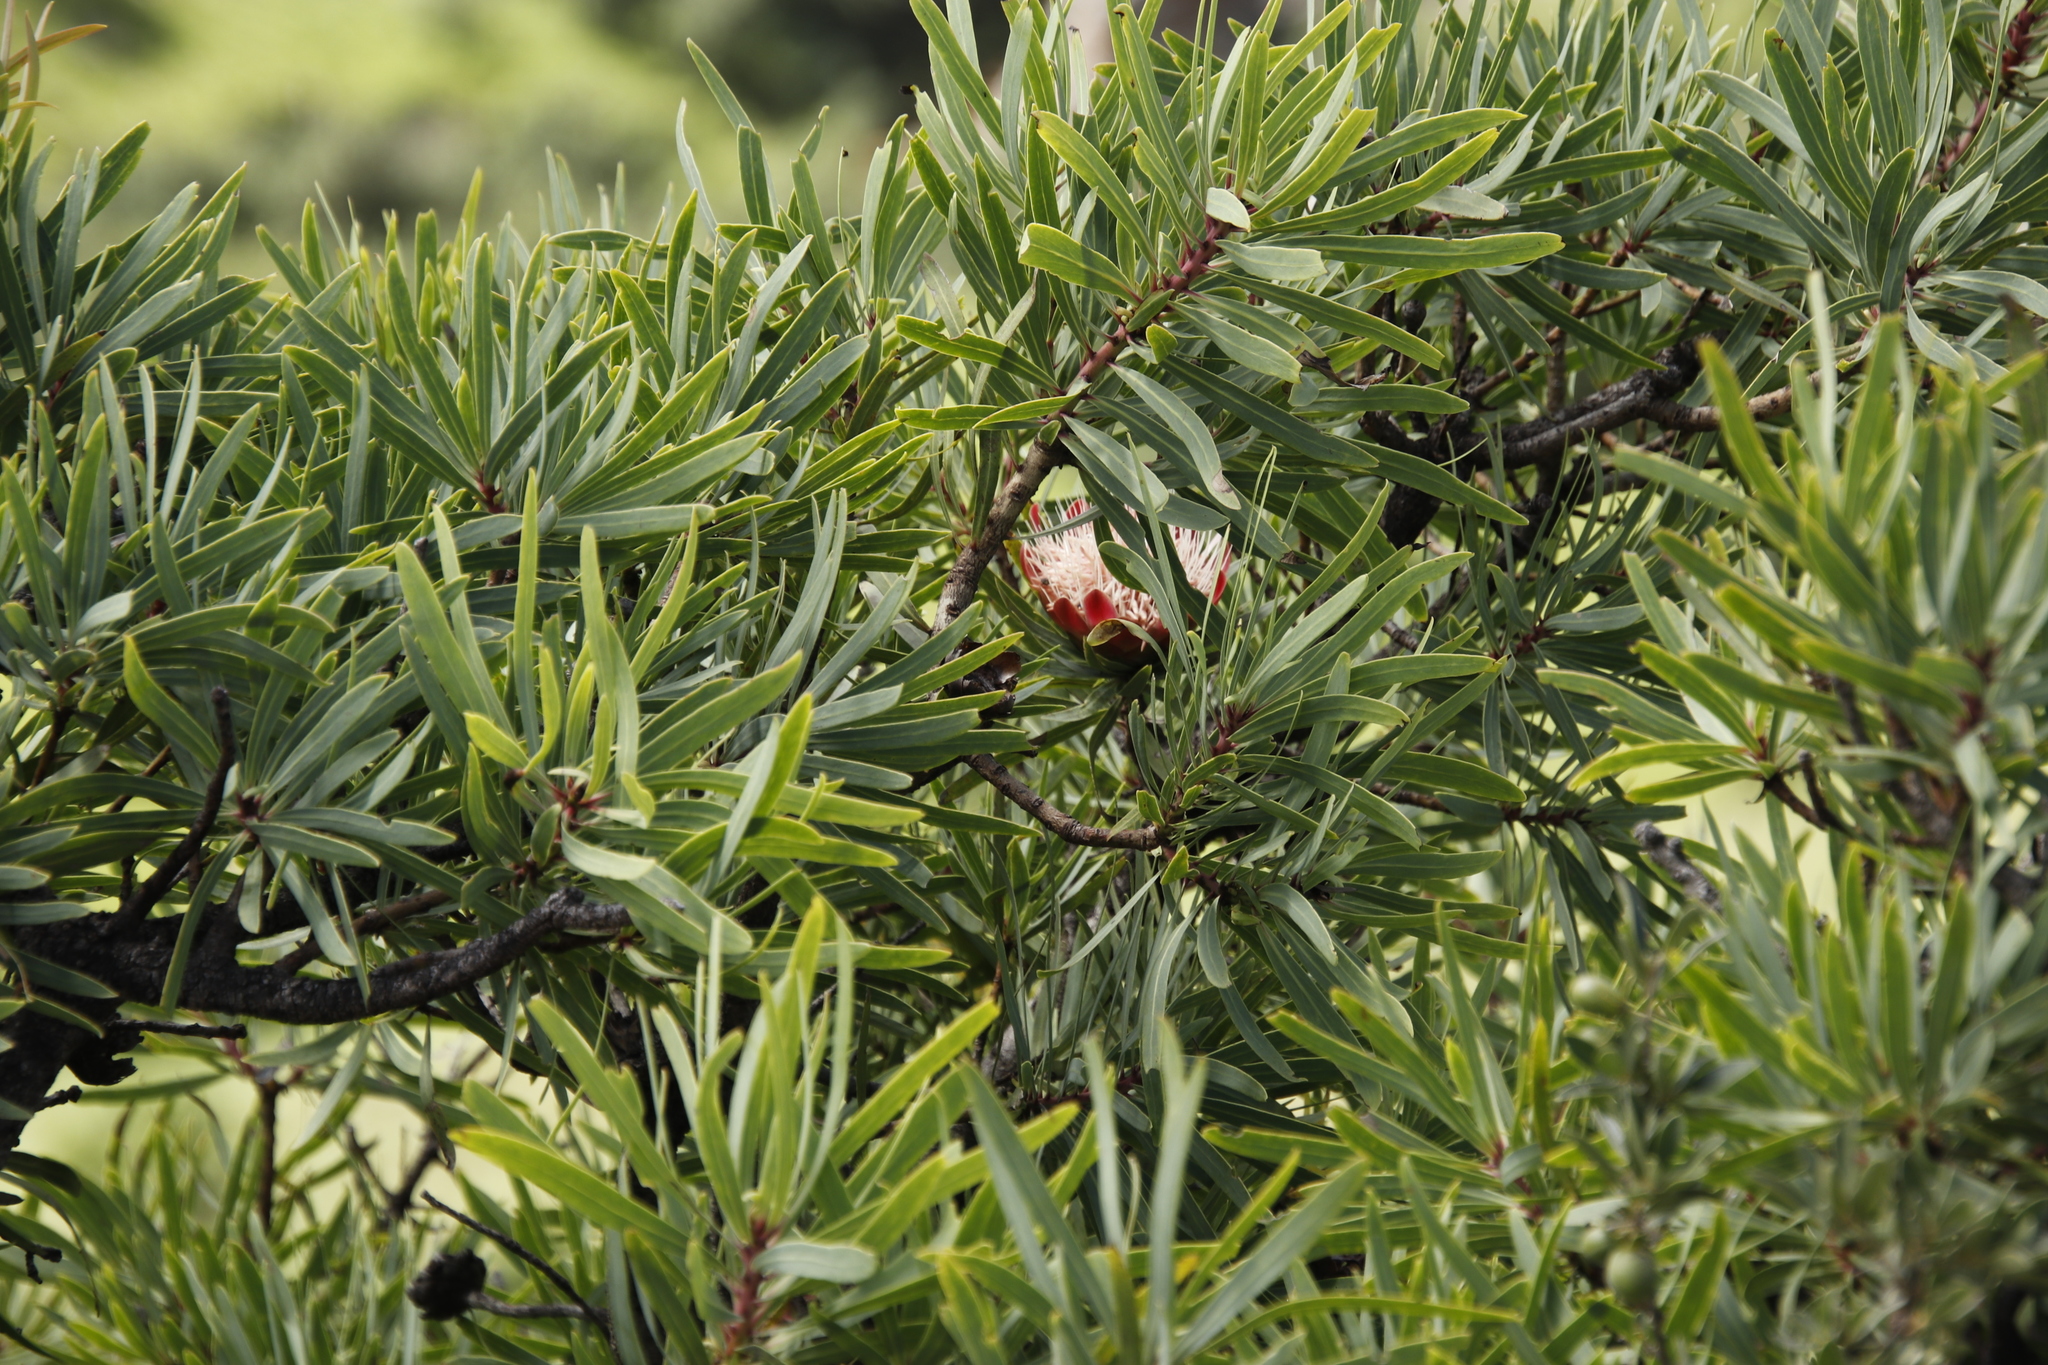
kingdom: Plantae
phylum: Tracheophyta
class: Magnoliopsida
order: Proteales
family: Proteaceae
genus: Protea
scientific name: Protea caffra
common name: Common sugarbush
